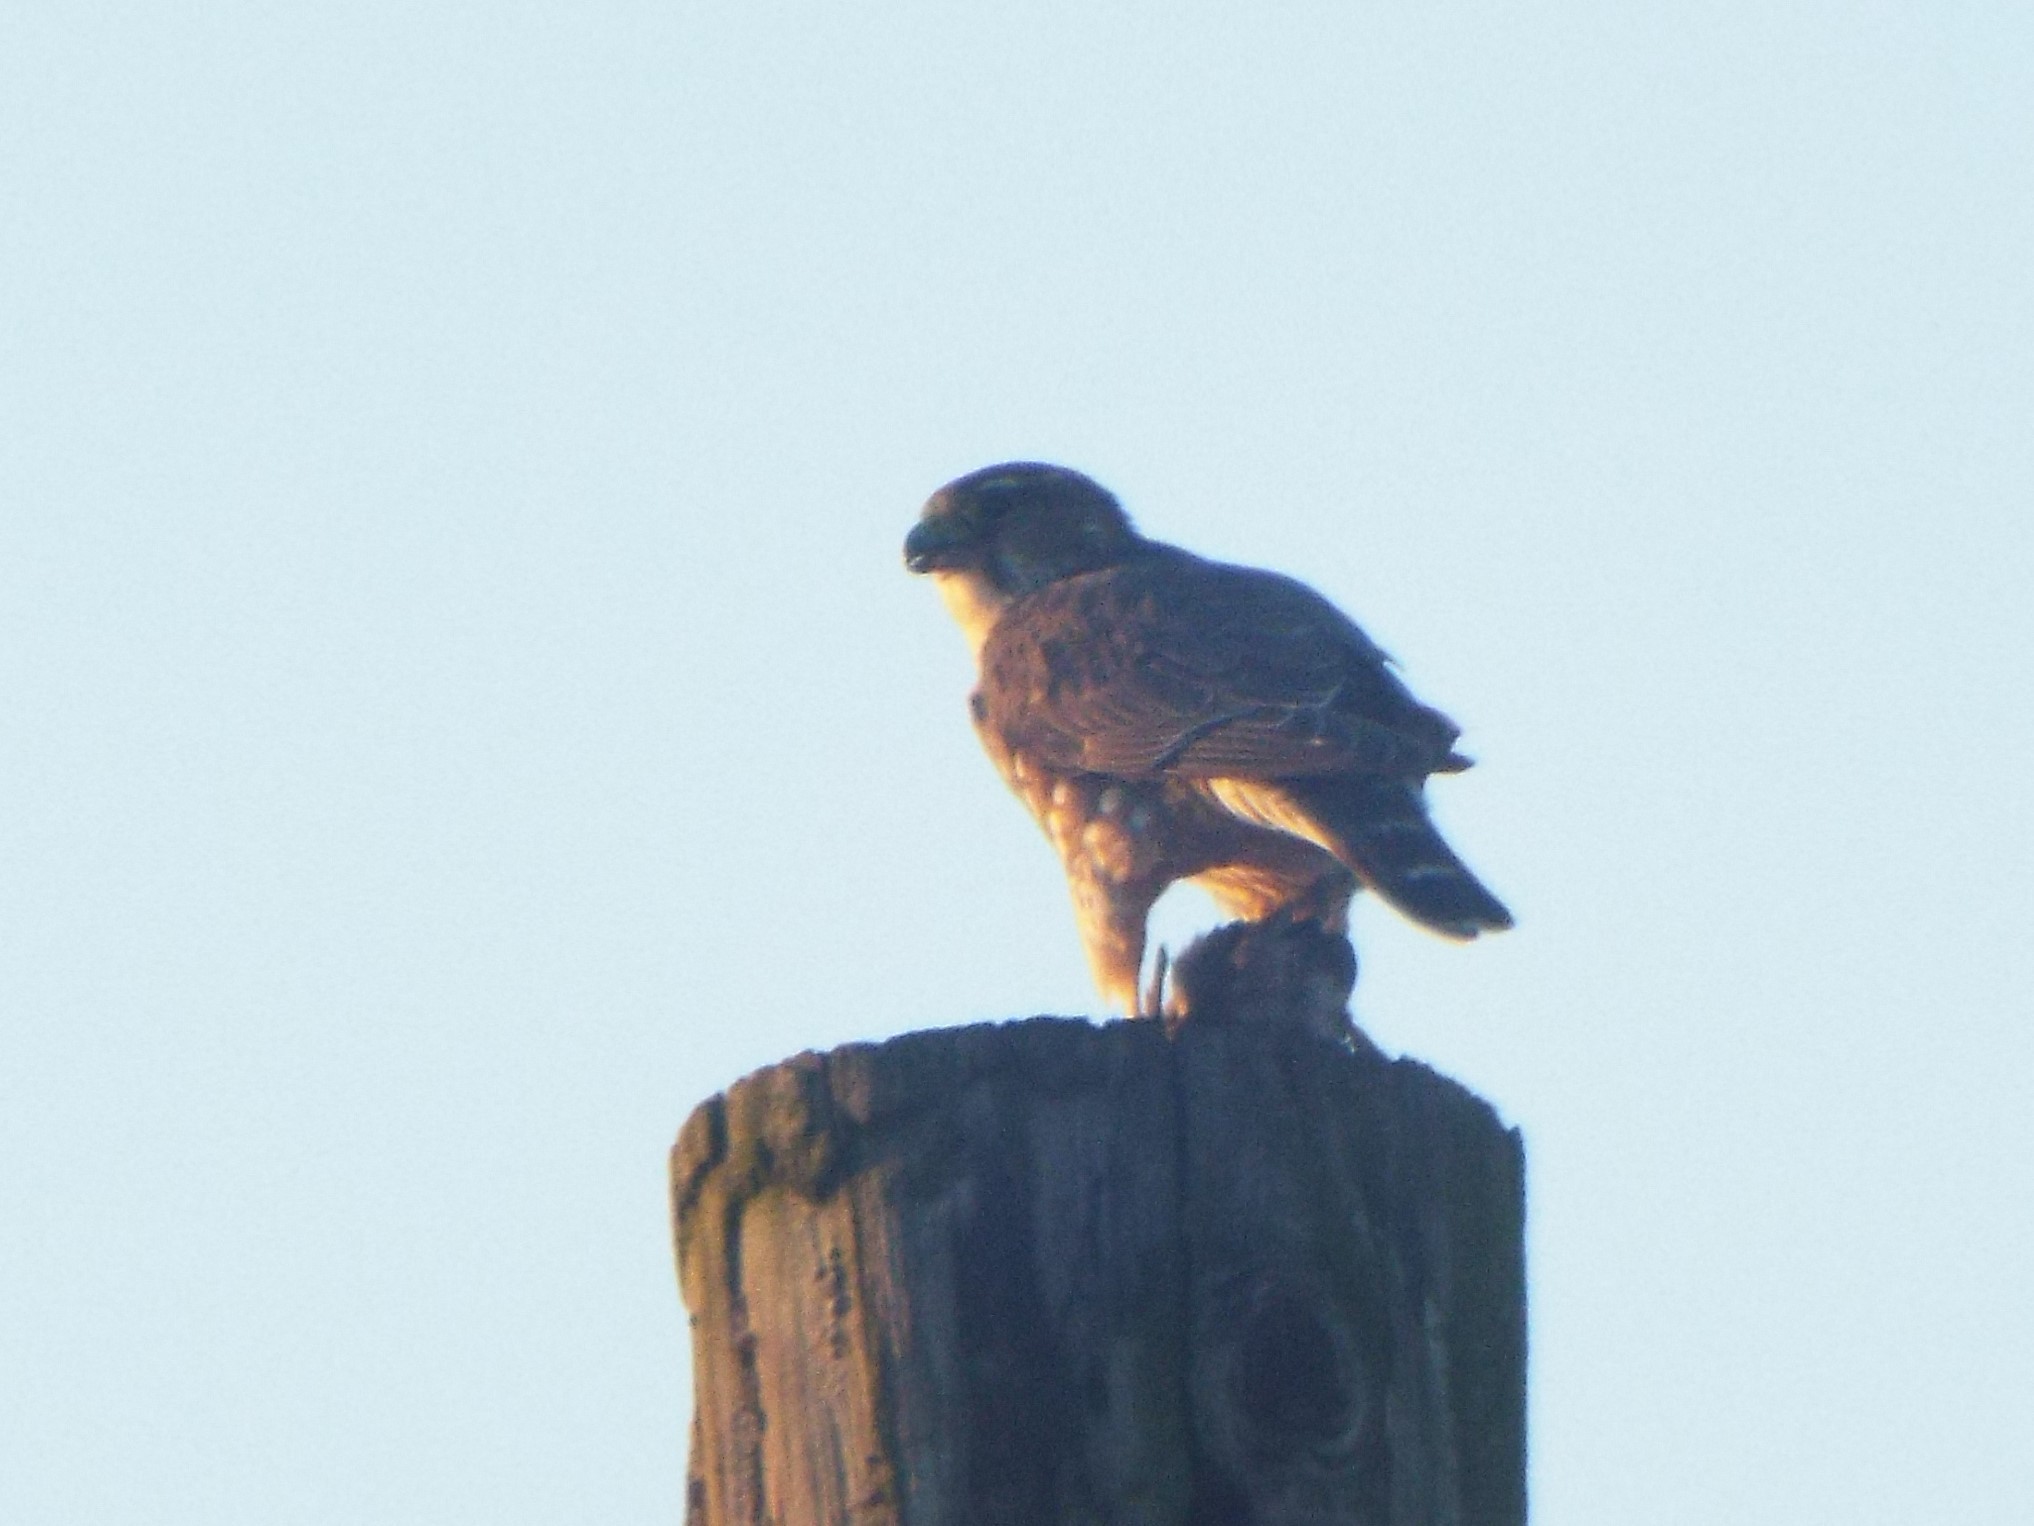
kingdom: Animalia
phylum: Chordata
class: Aves
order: Falconiformes
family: Falconidae
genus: Falco
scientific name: Falco columbarius
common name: Merlin
